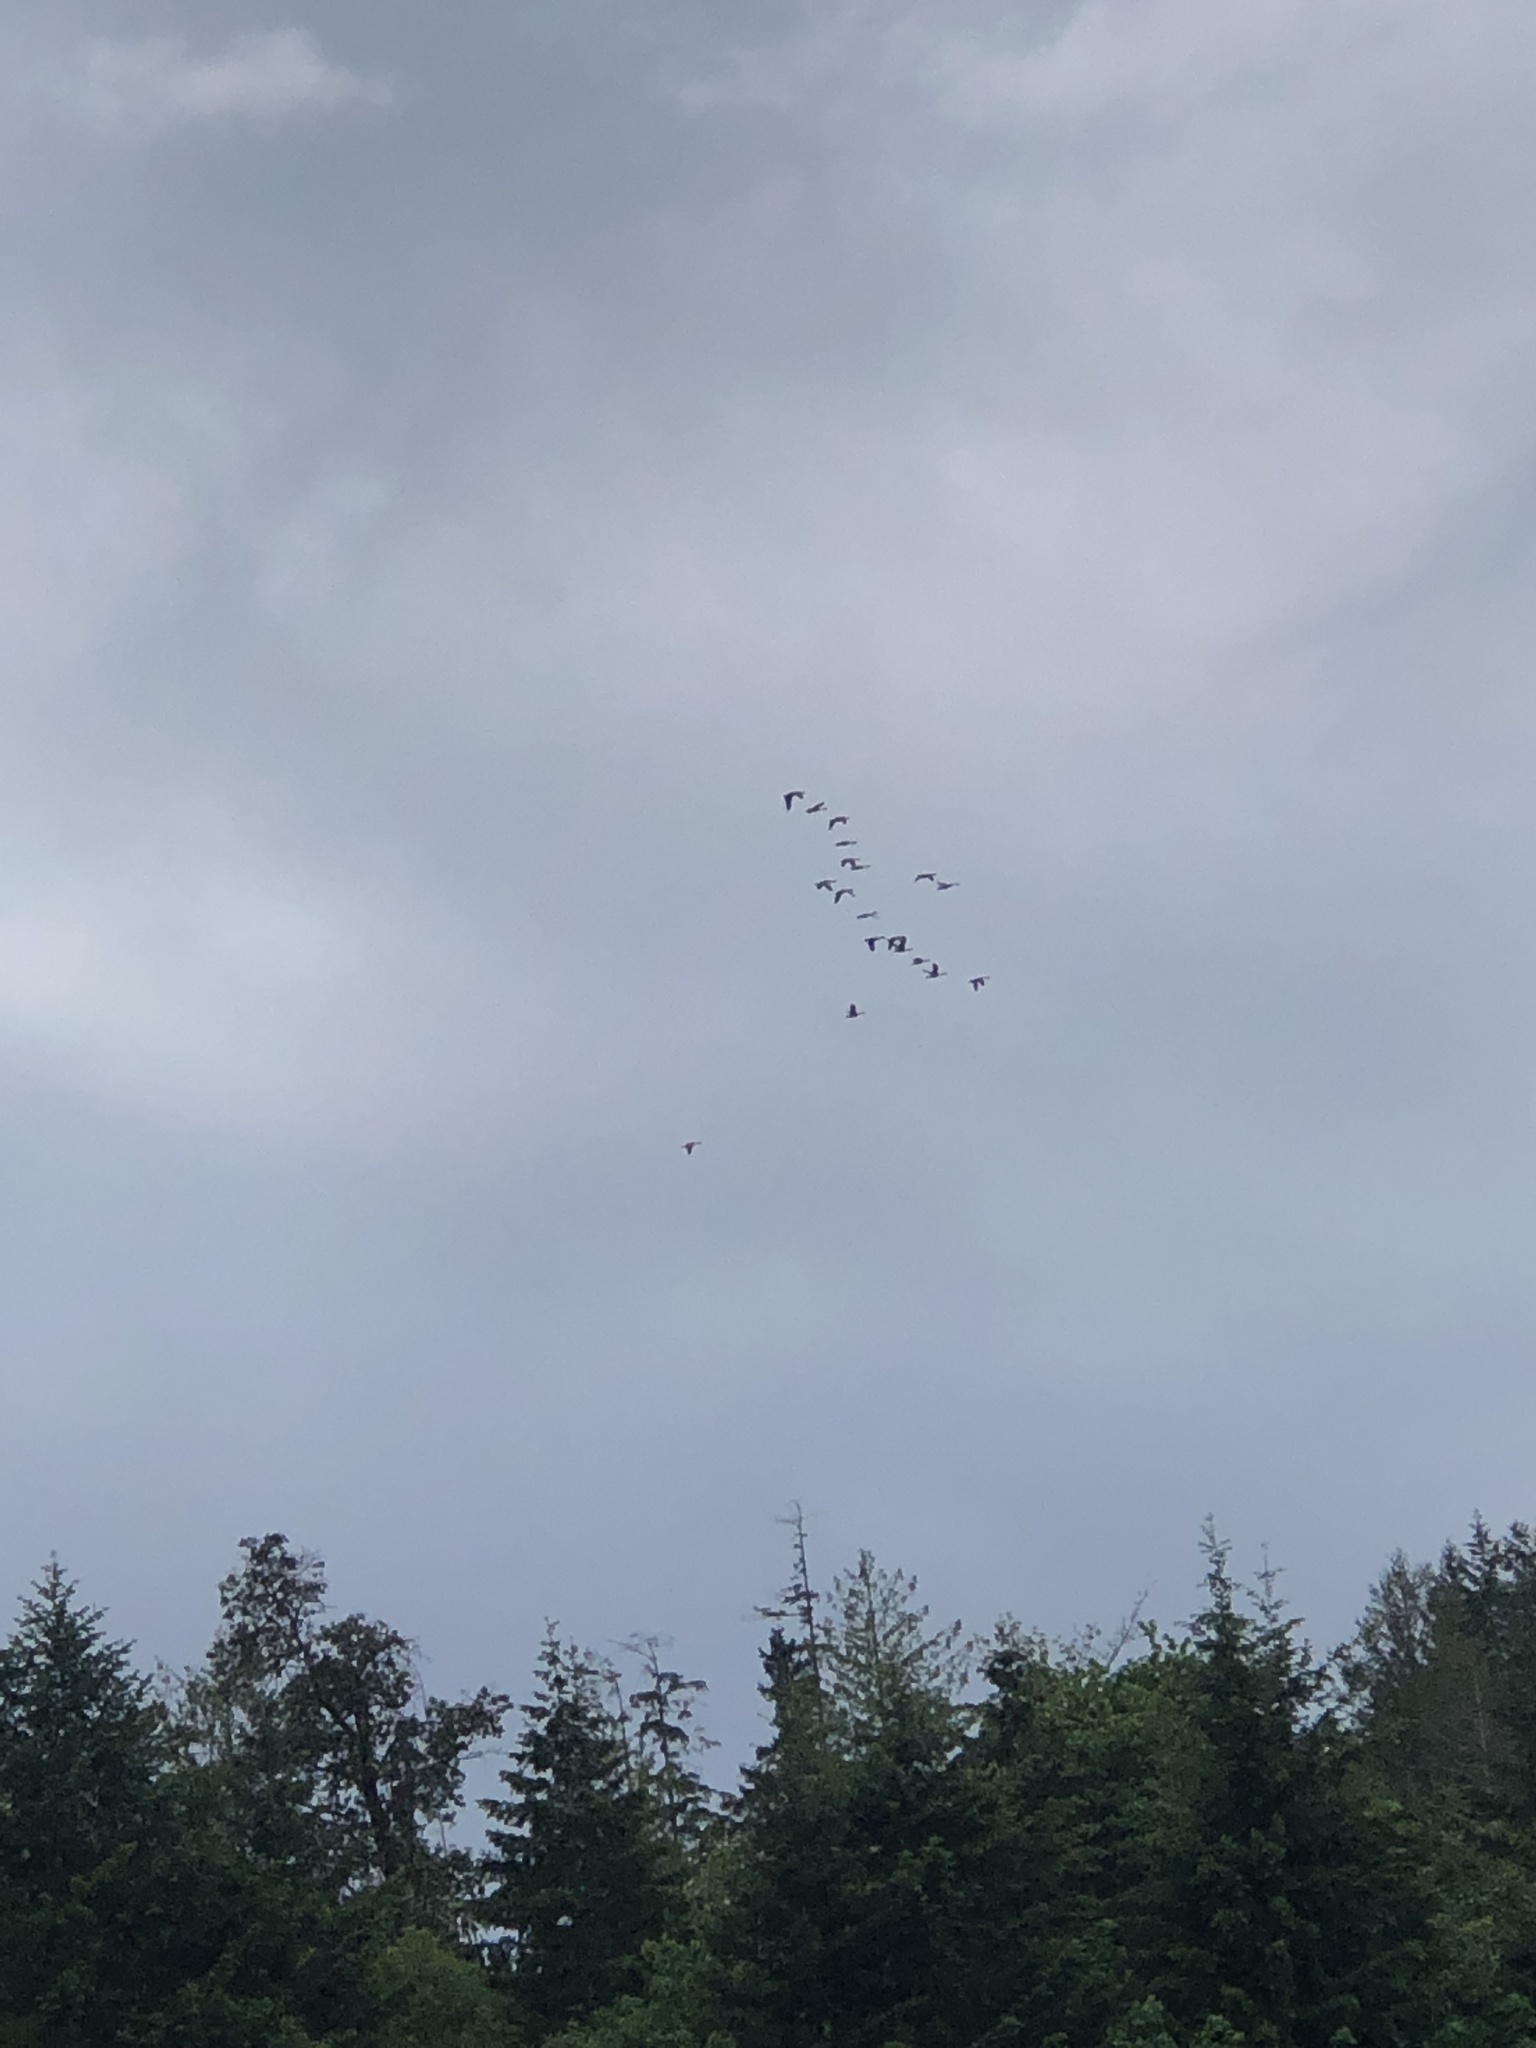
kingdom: Animalia
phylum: Chordata
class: Aves
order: Anseriformes
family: Anatidae
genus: Branta
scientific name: Branta canadensis
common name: Canada goose
